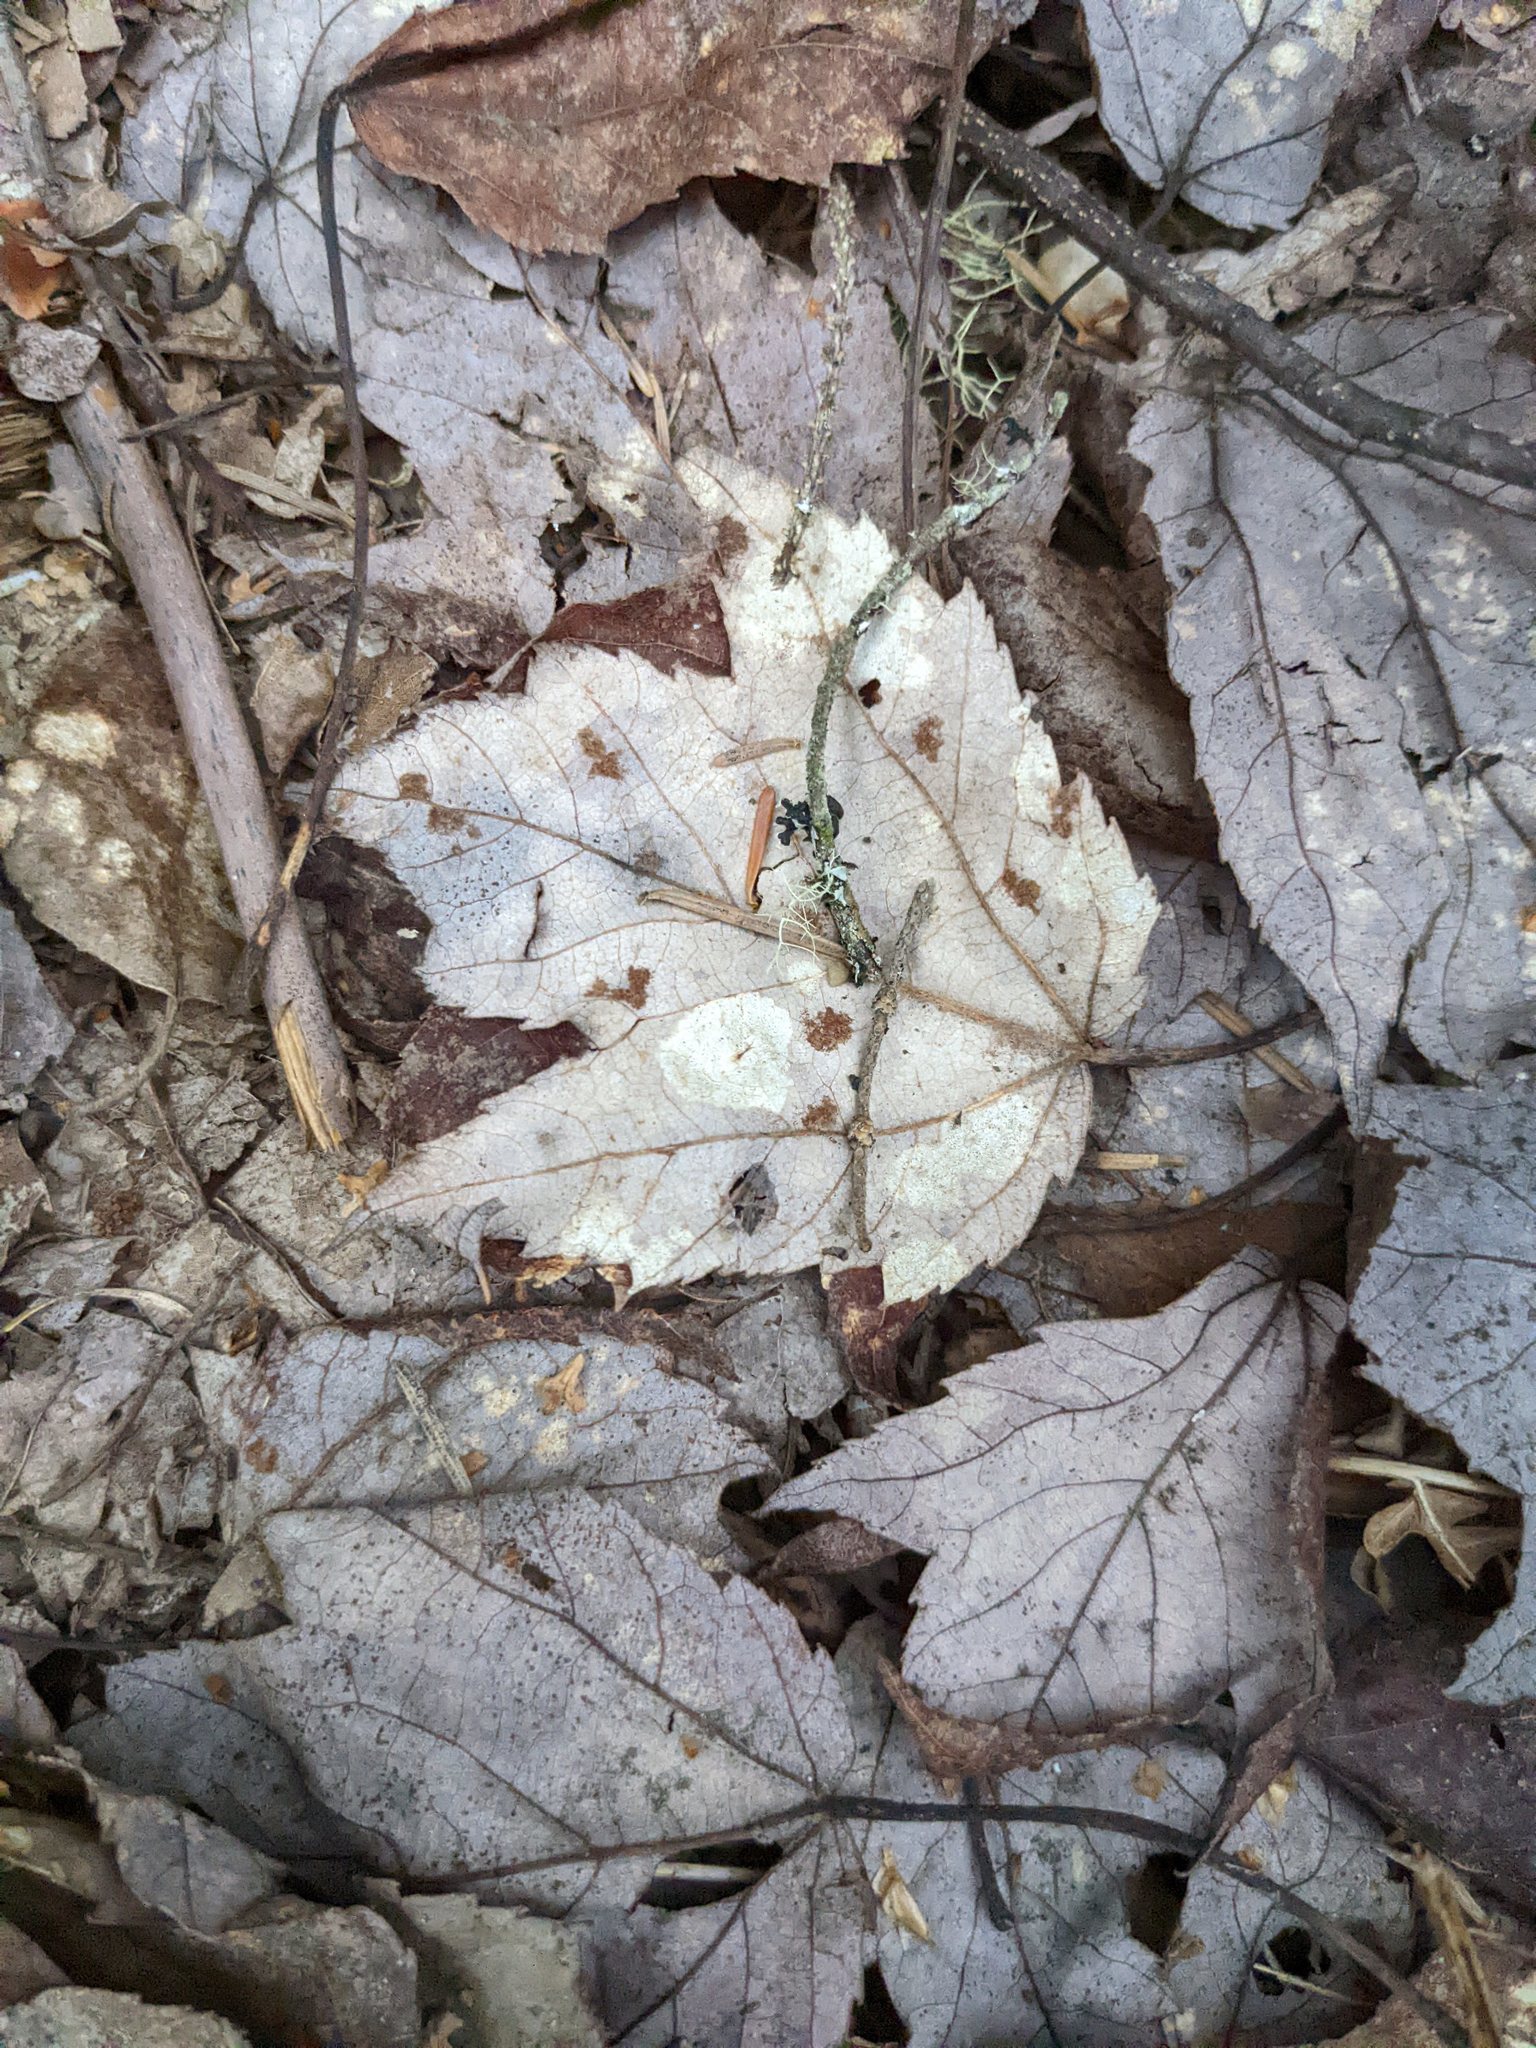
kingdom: Plantae
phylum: Tracheophyta
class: Magnoliopsida
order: Sapindales
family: Sapindaceae
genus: Acer
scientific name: Acer rubrum
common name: Red maple
